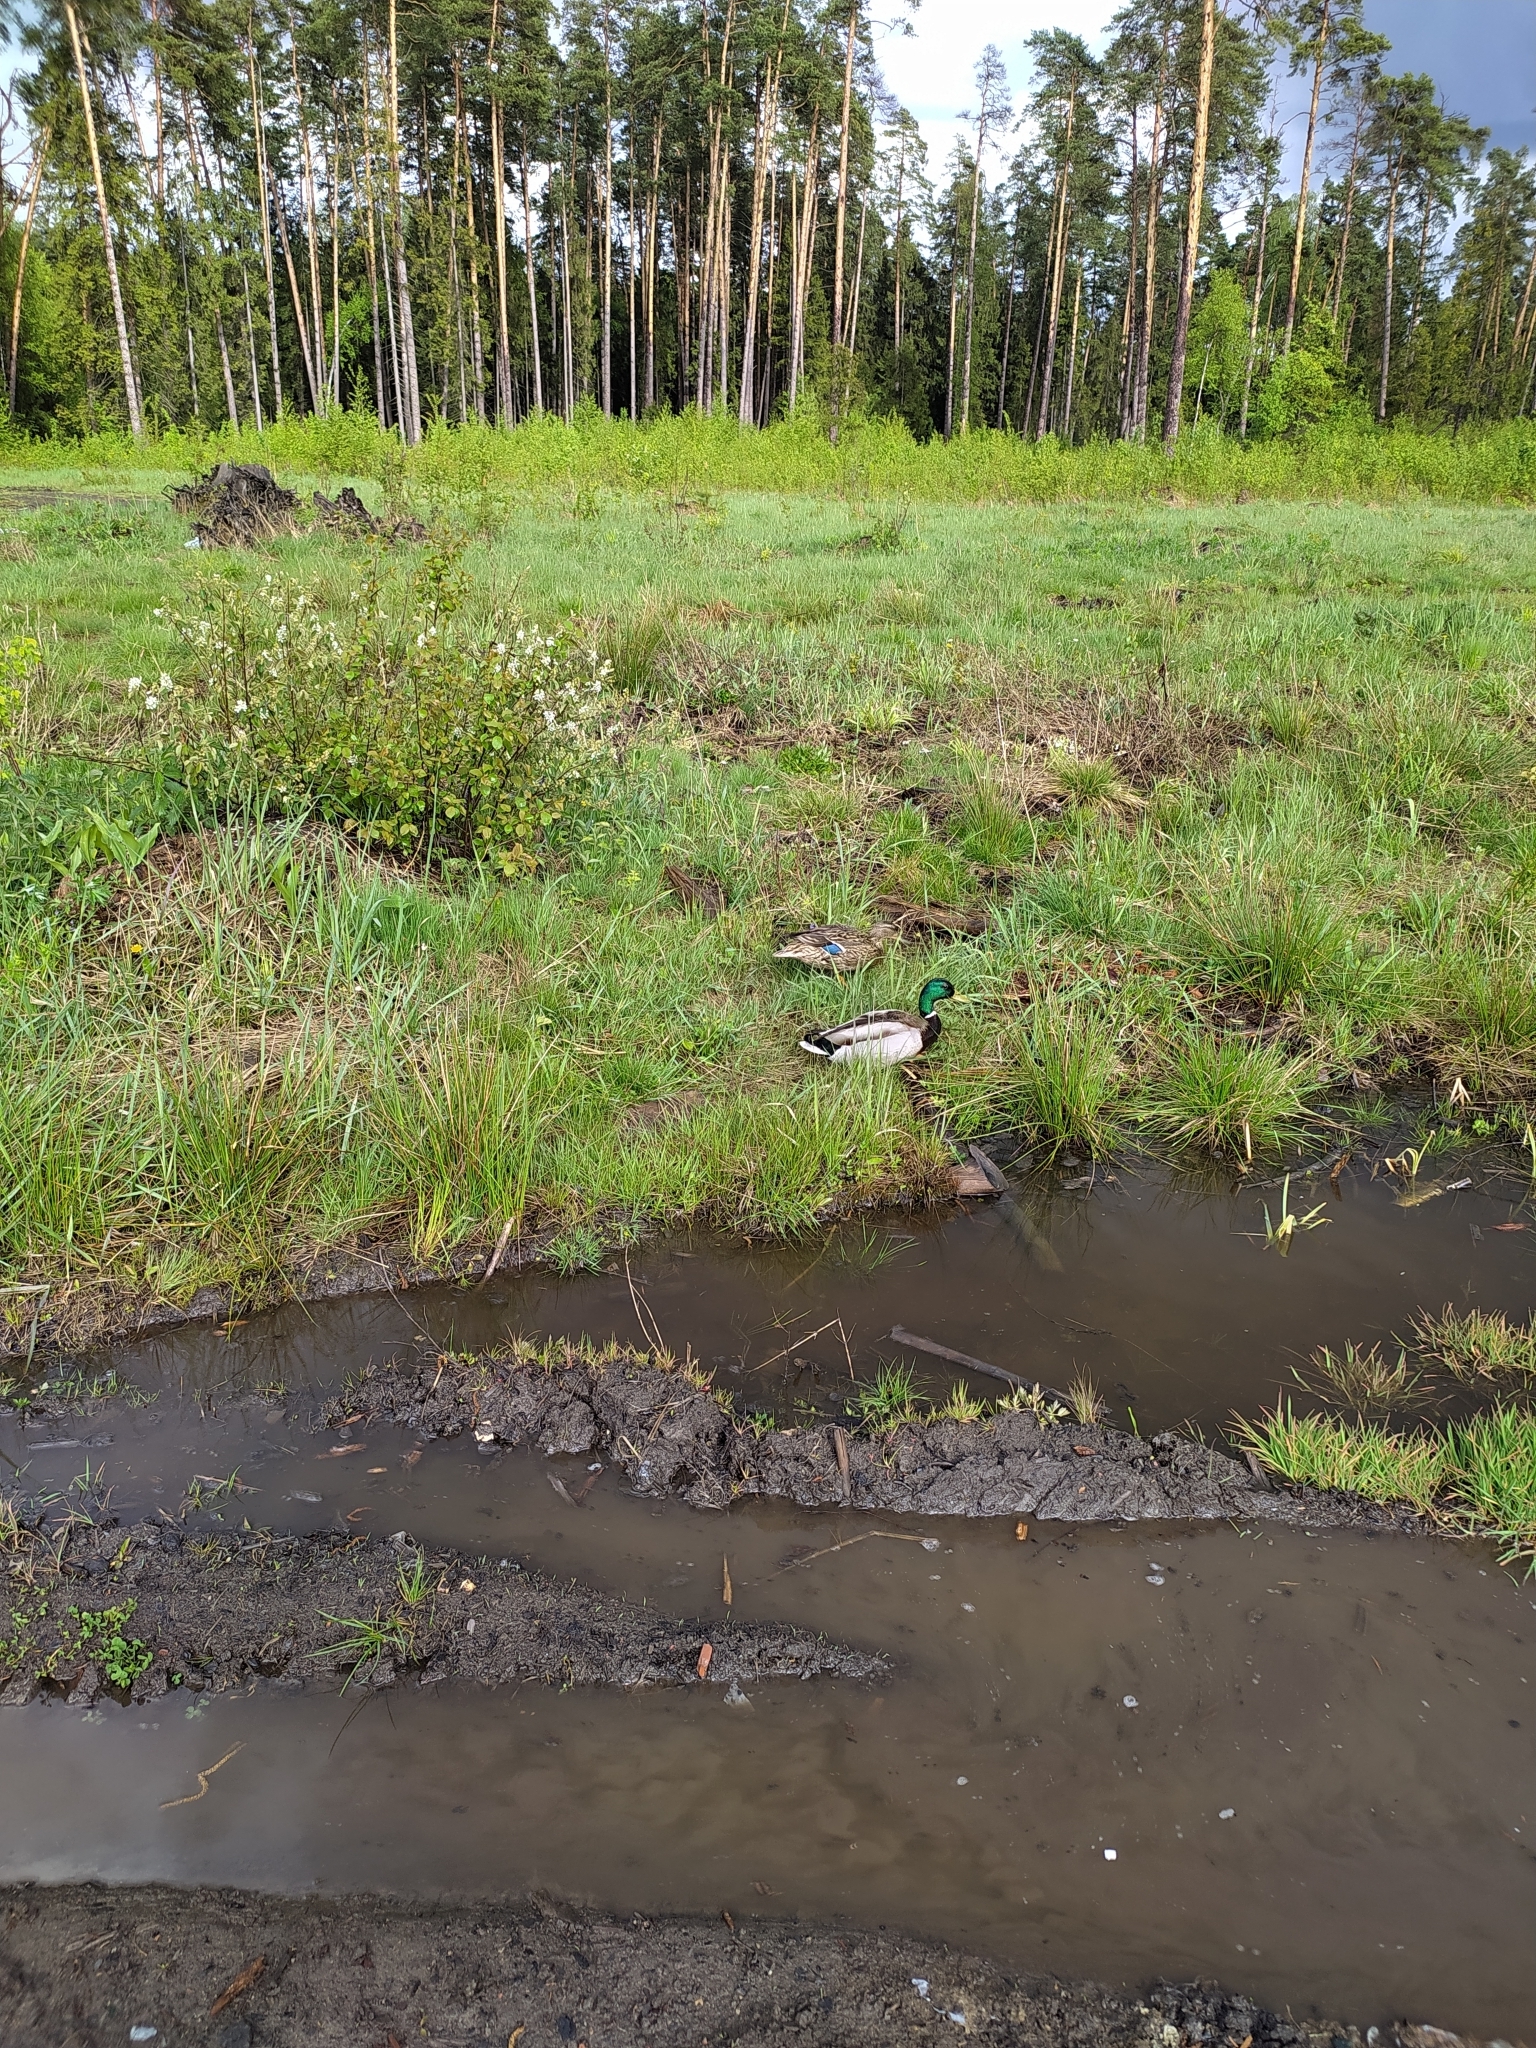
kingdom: Animalia
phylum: Chordata
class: Aves
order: Anseriformes
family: Anatidae
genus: Anas
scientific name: Anas platyrhynchos
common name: Mallard
